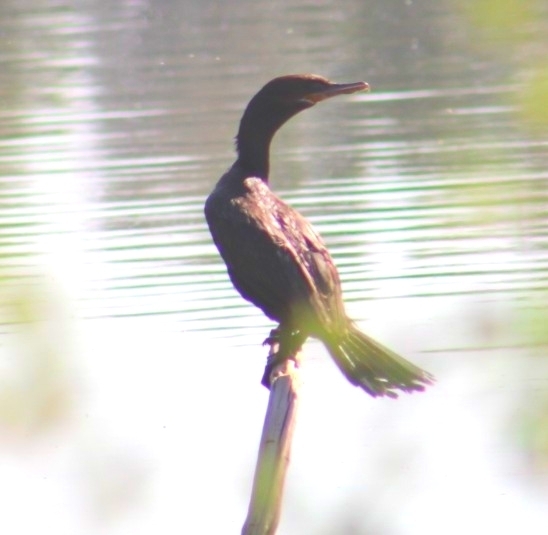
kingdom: Animalia
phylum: Chordata
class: Aves
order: Suliformes
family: Phalacrocoracidae
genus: Phalacrocorax
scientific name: Phalacrocorax brasilianus
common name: Neotropic cormorant
